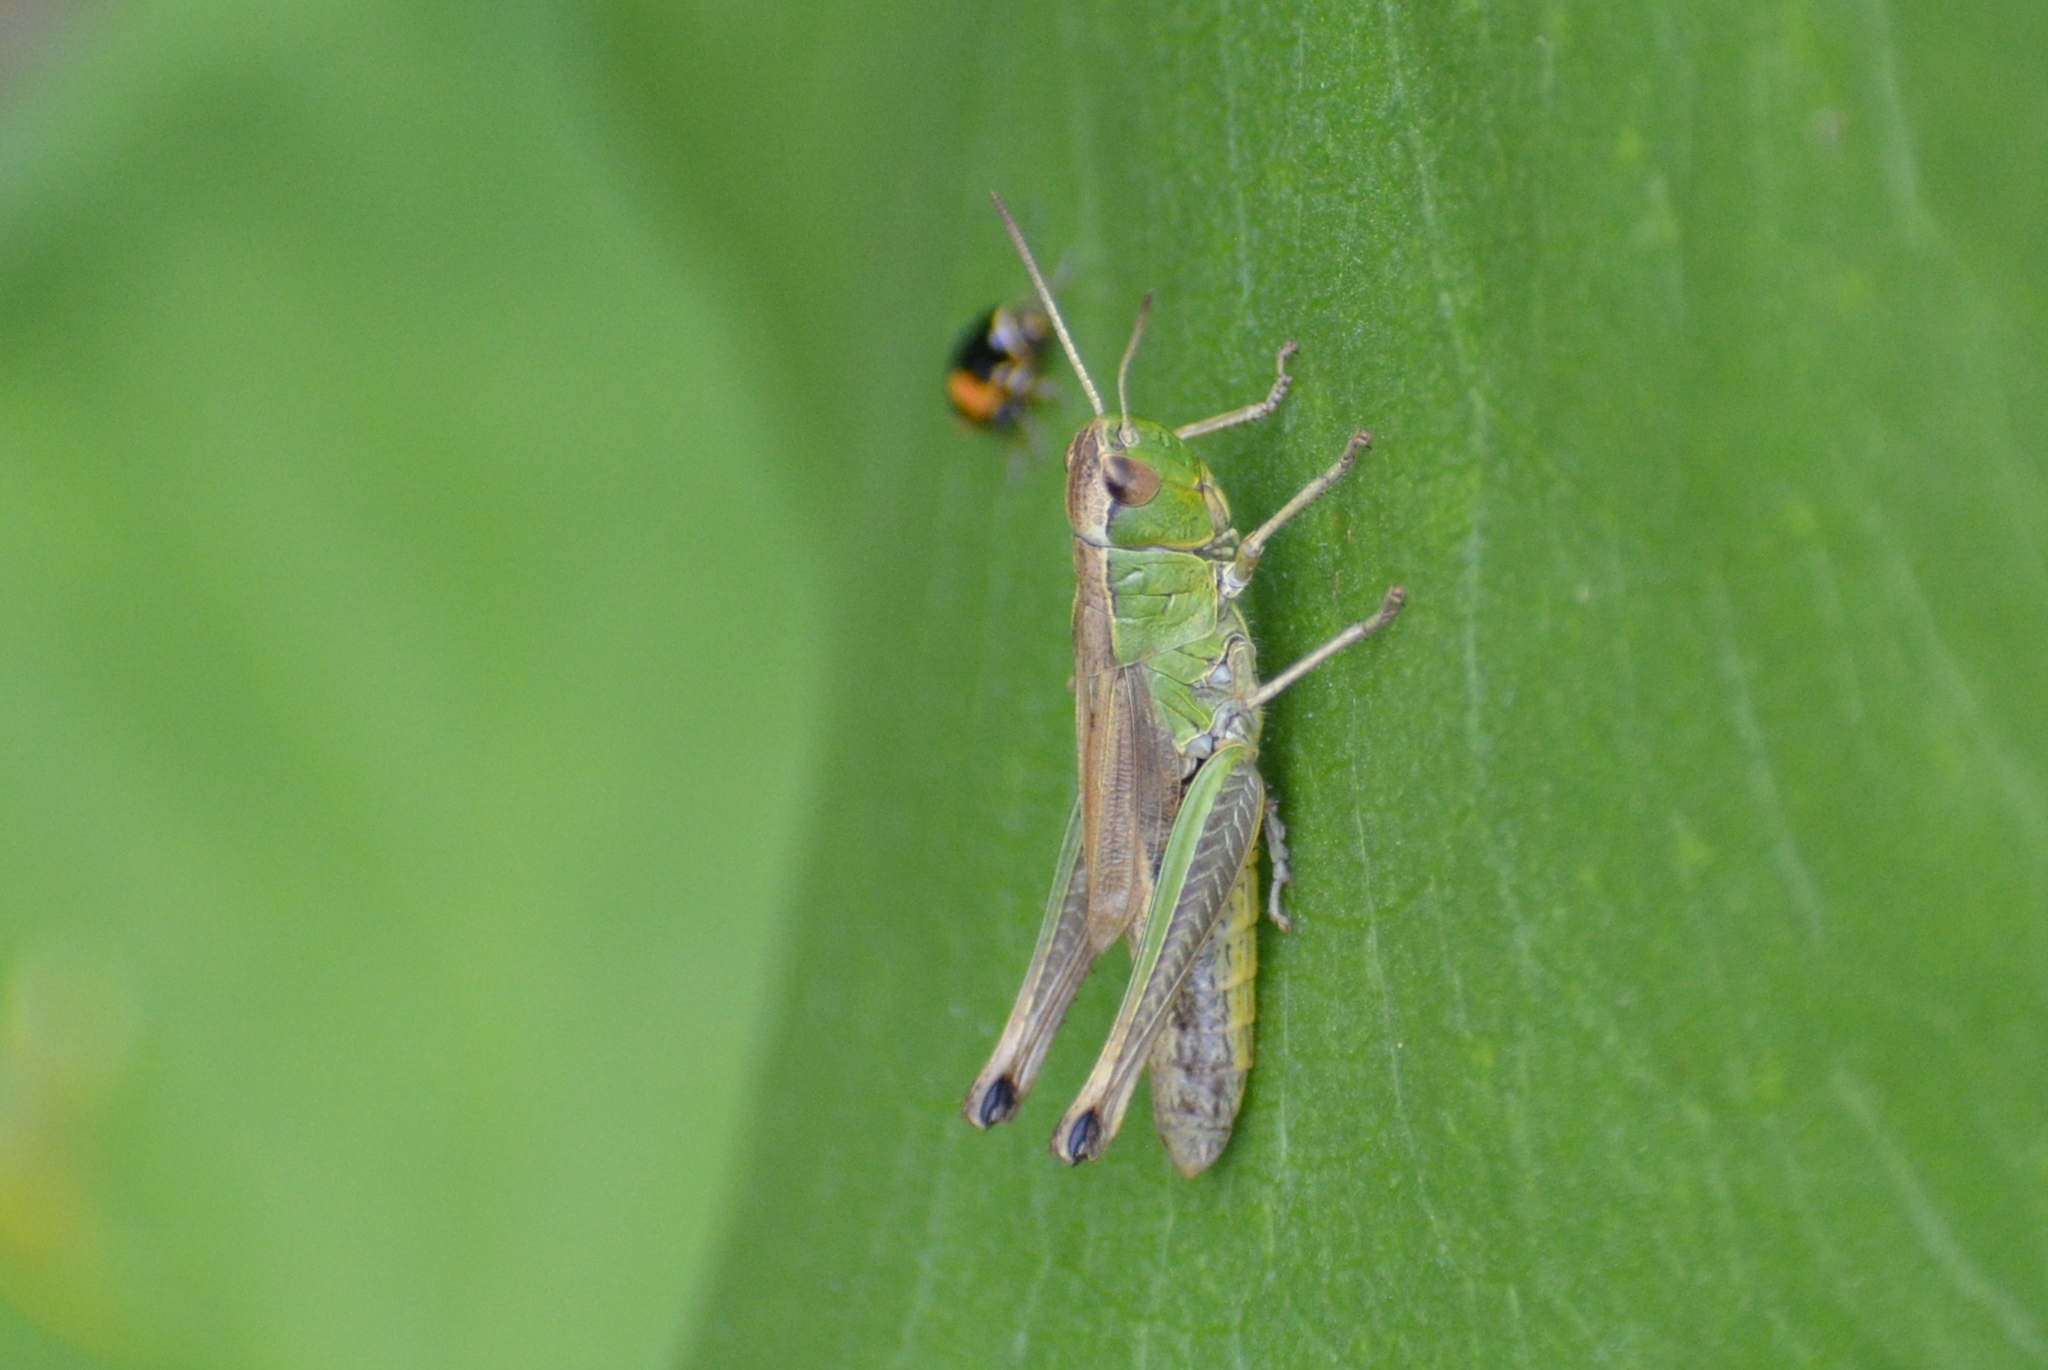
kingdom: Animalia
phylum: Arthropoda
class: Insecta
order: Orthoptera
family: Acrididae
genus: Pseudochorthippus
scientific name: Pseudochorthippus parallelus
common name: Meadow grasshopper
